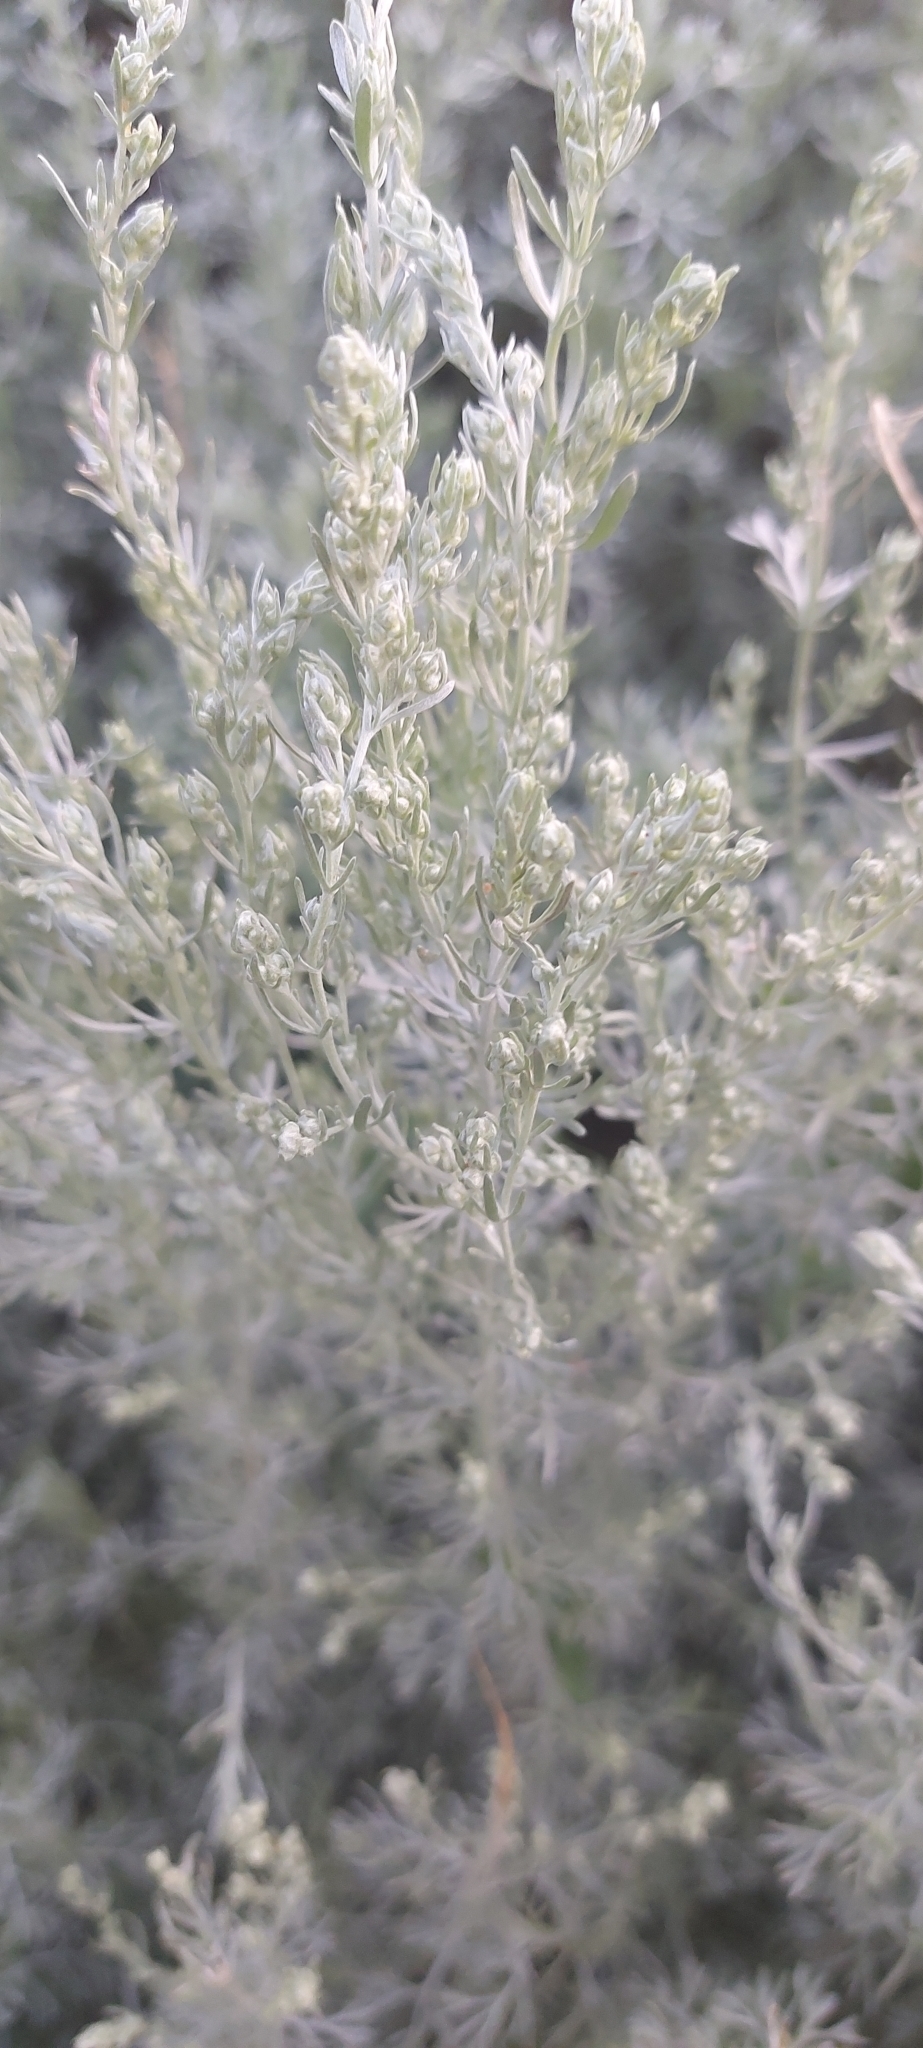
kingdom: Plantae
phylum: Tracheophyta
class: Magnoliopsida
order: Asterales
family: Asteraceae
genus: Artemisia
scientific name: Artemisia austriaca
